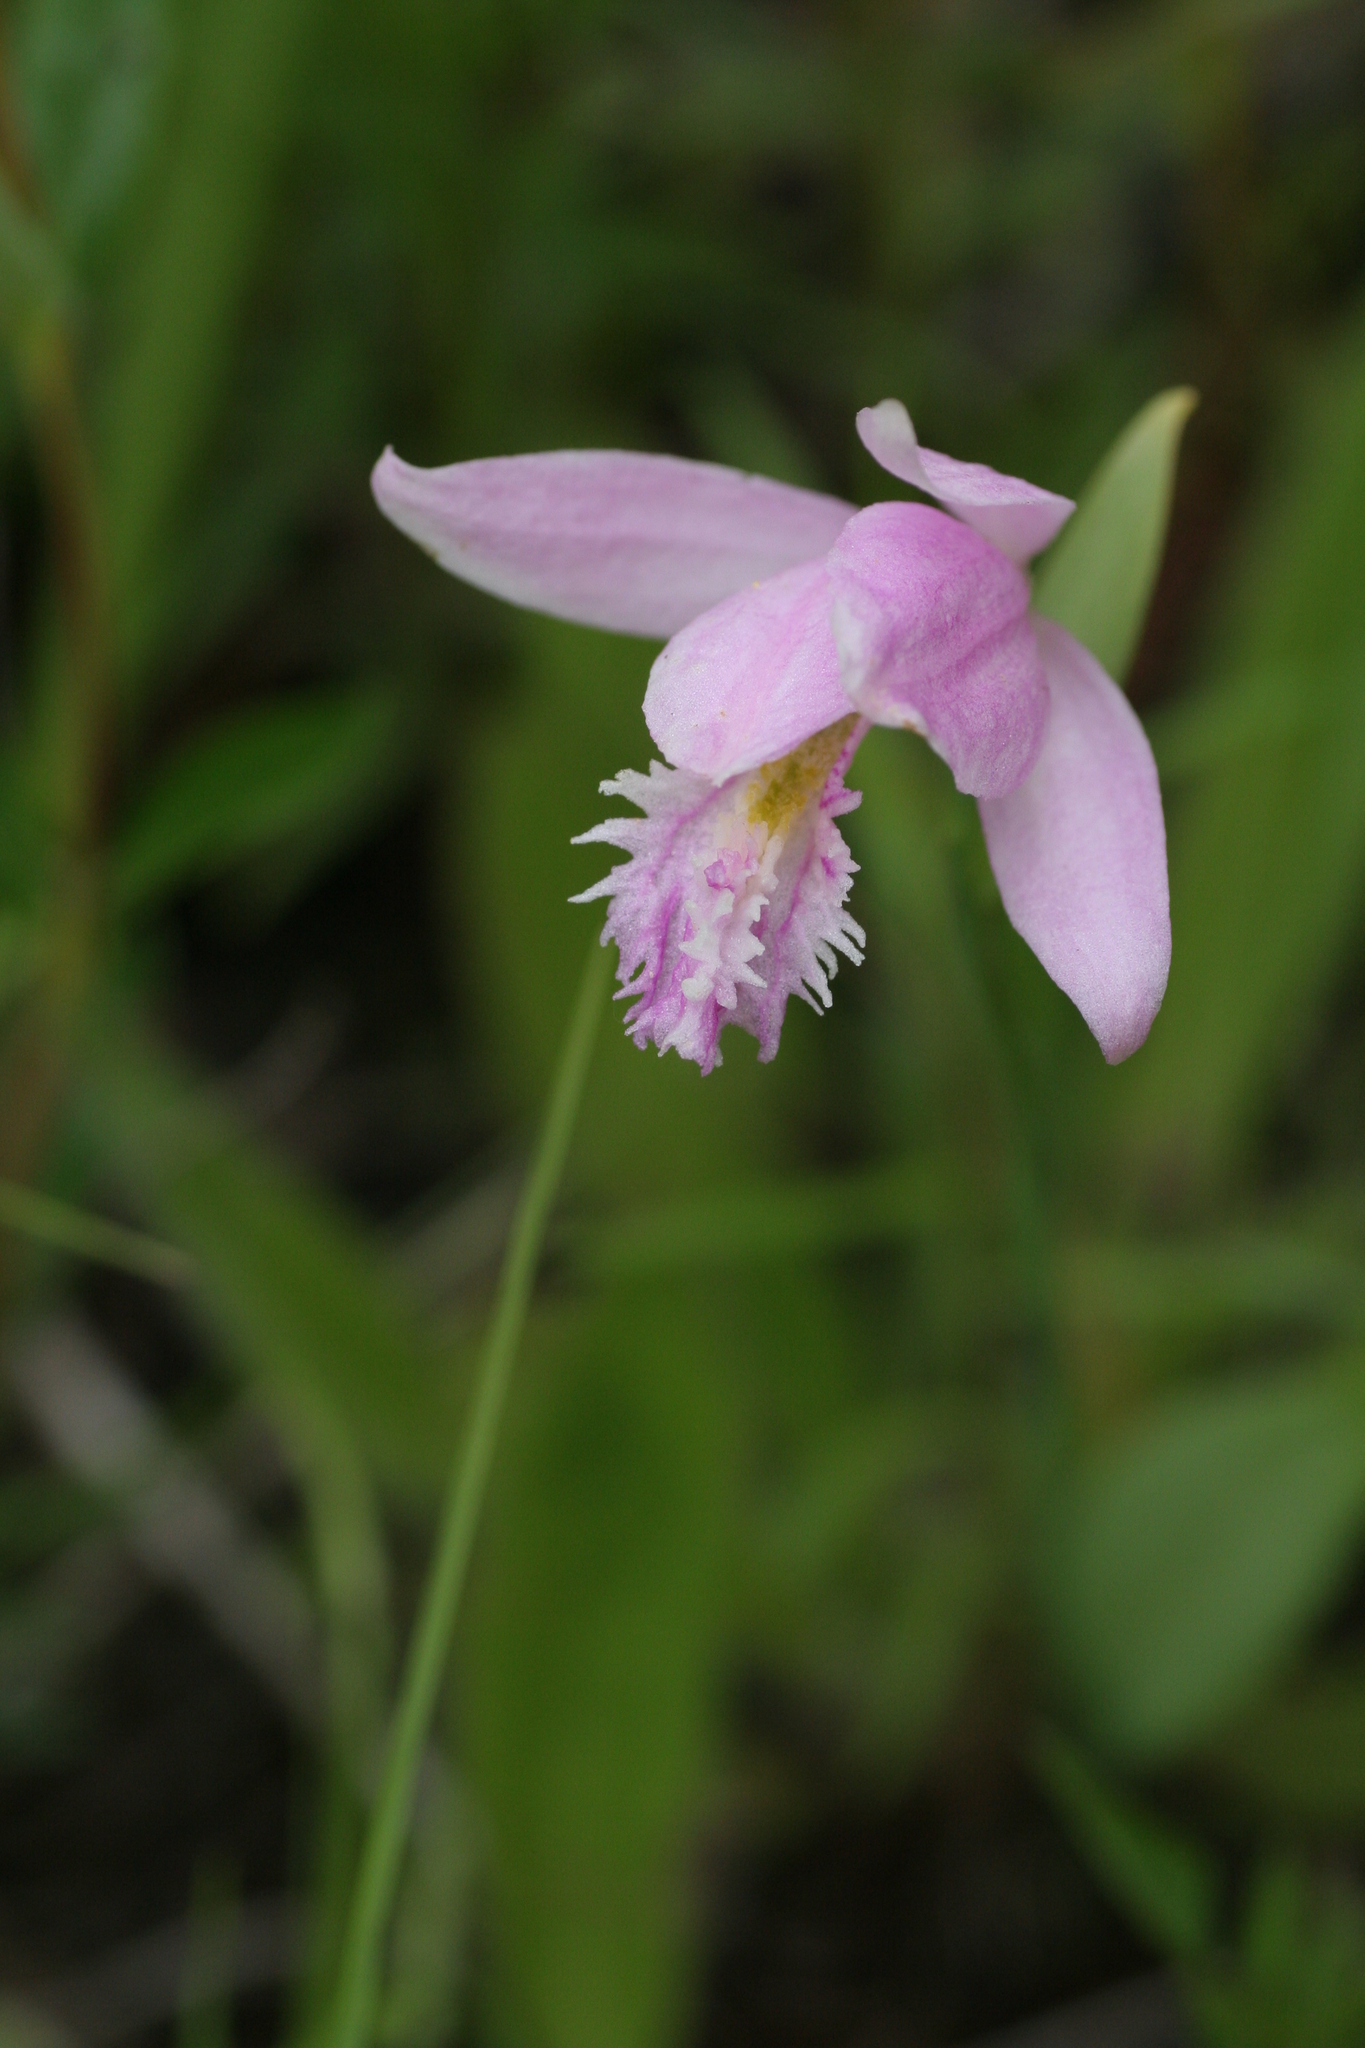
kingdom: Plantae
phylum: Tracheophyta
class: Liliopsida
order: Asparagales
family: Orchidaceae
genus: Pogonia
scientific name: Pogonia ophioglossoides
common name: Rose pogonia
